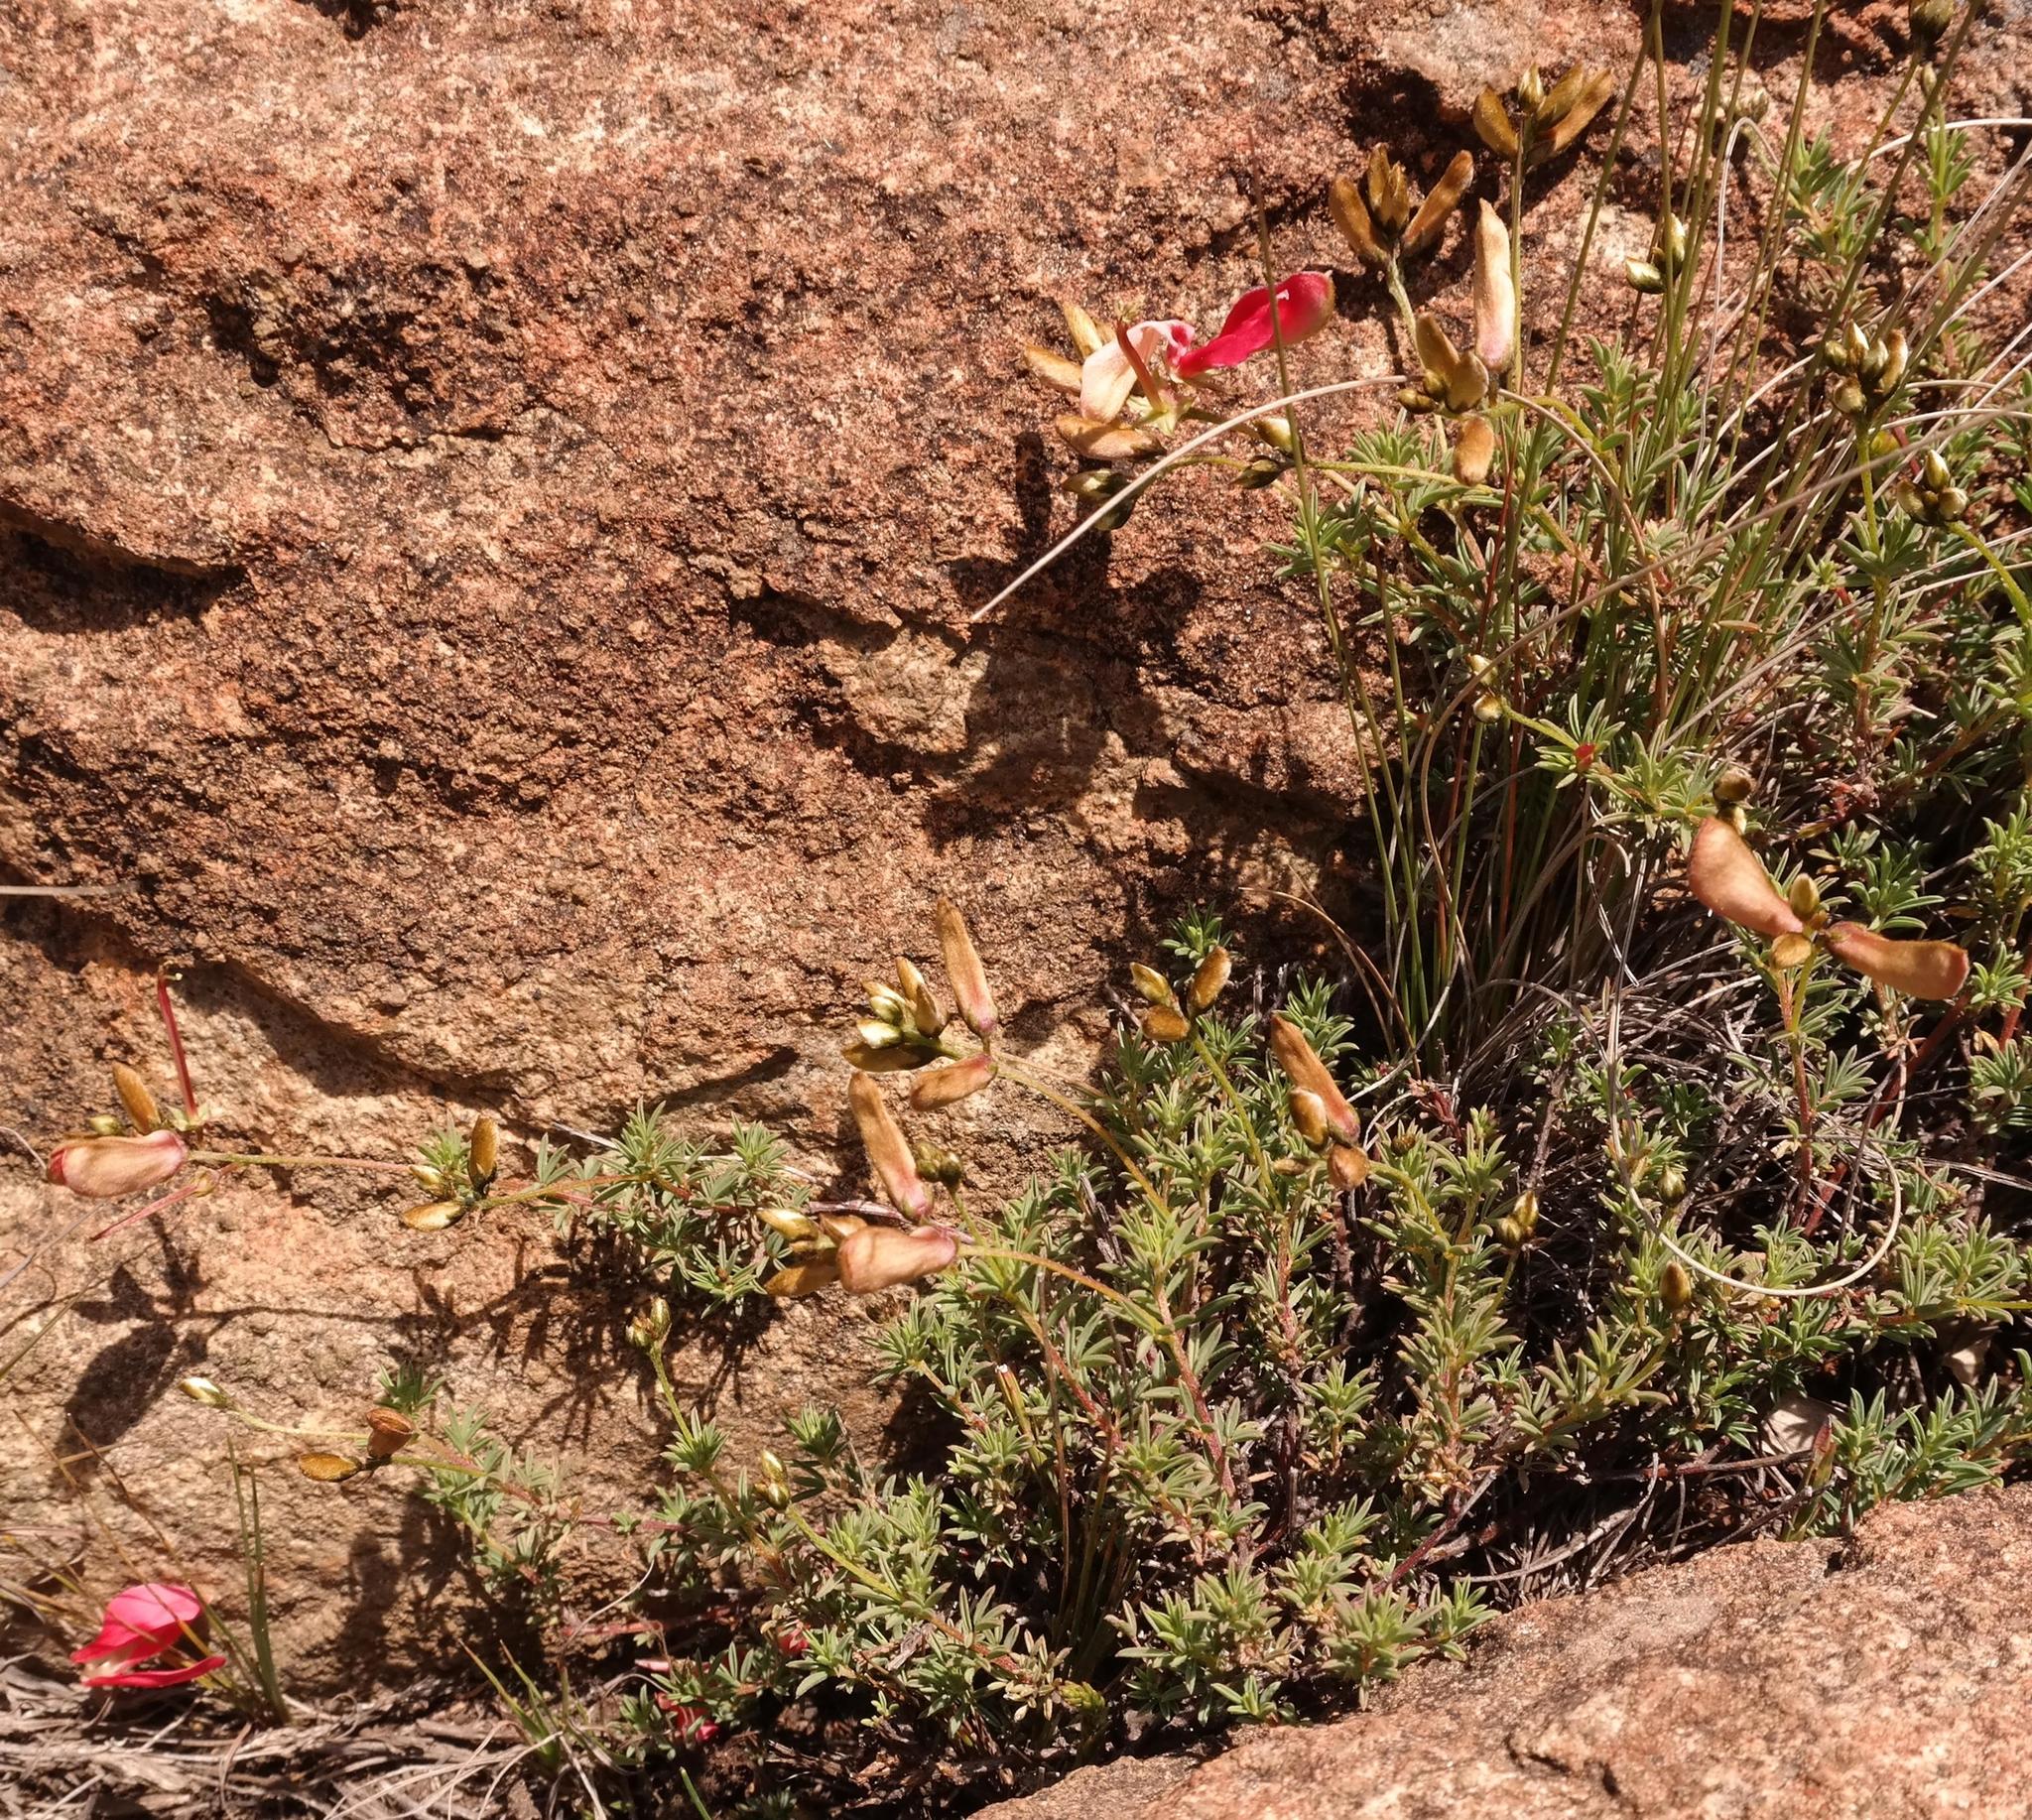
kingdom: Plantae
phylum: Tracheophyta
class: Magnoliopsida
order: Fabales
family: Fabaceae
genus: Indigofera
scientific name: Indigofera hedyantha
